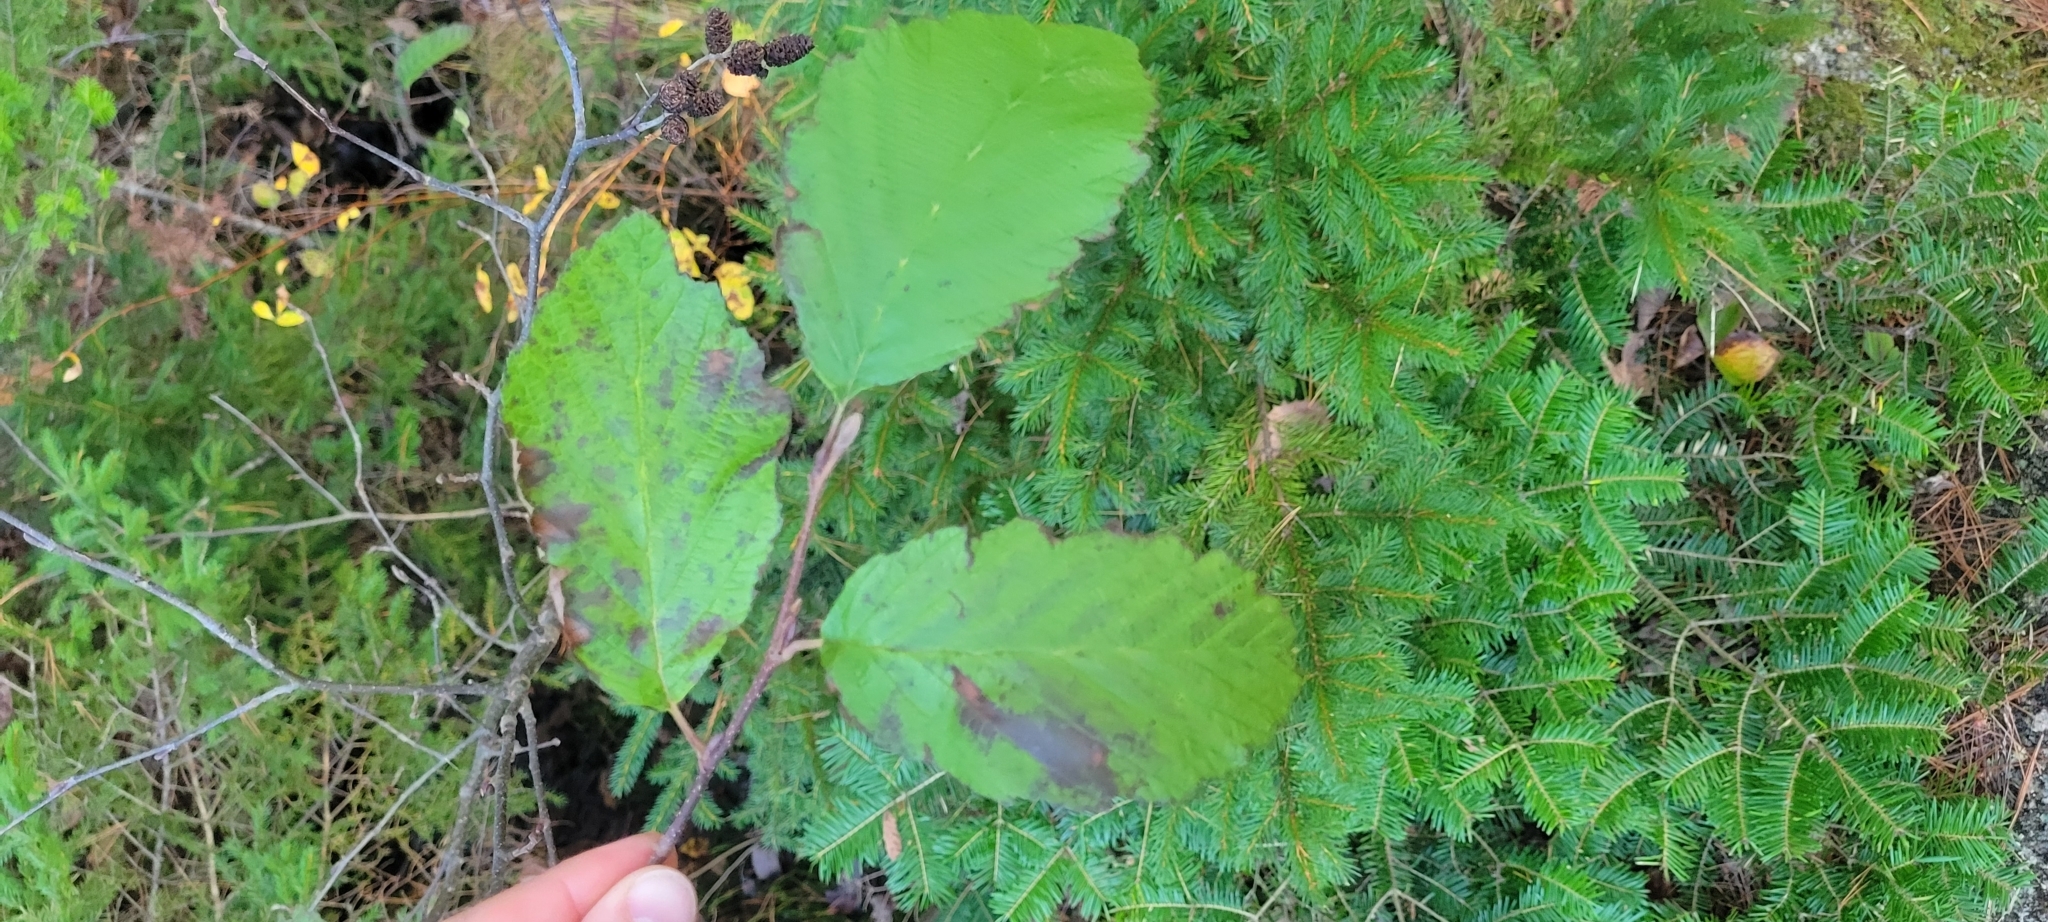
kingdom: Animalia
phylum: Arthropoda
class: Insecta
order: Hemiptera
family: Aphididae
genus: Prociphilus
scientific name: Prociphilus tessellatus
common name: Woolly alder aphid
